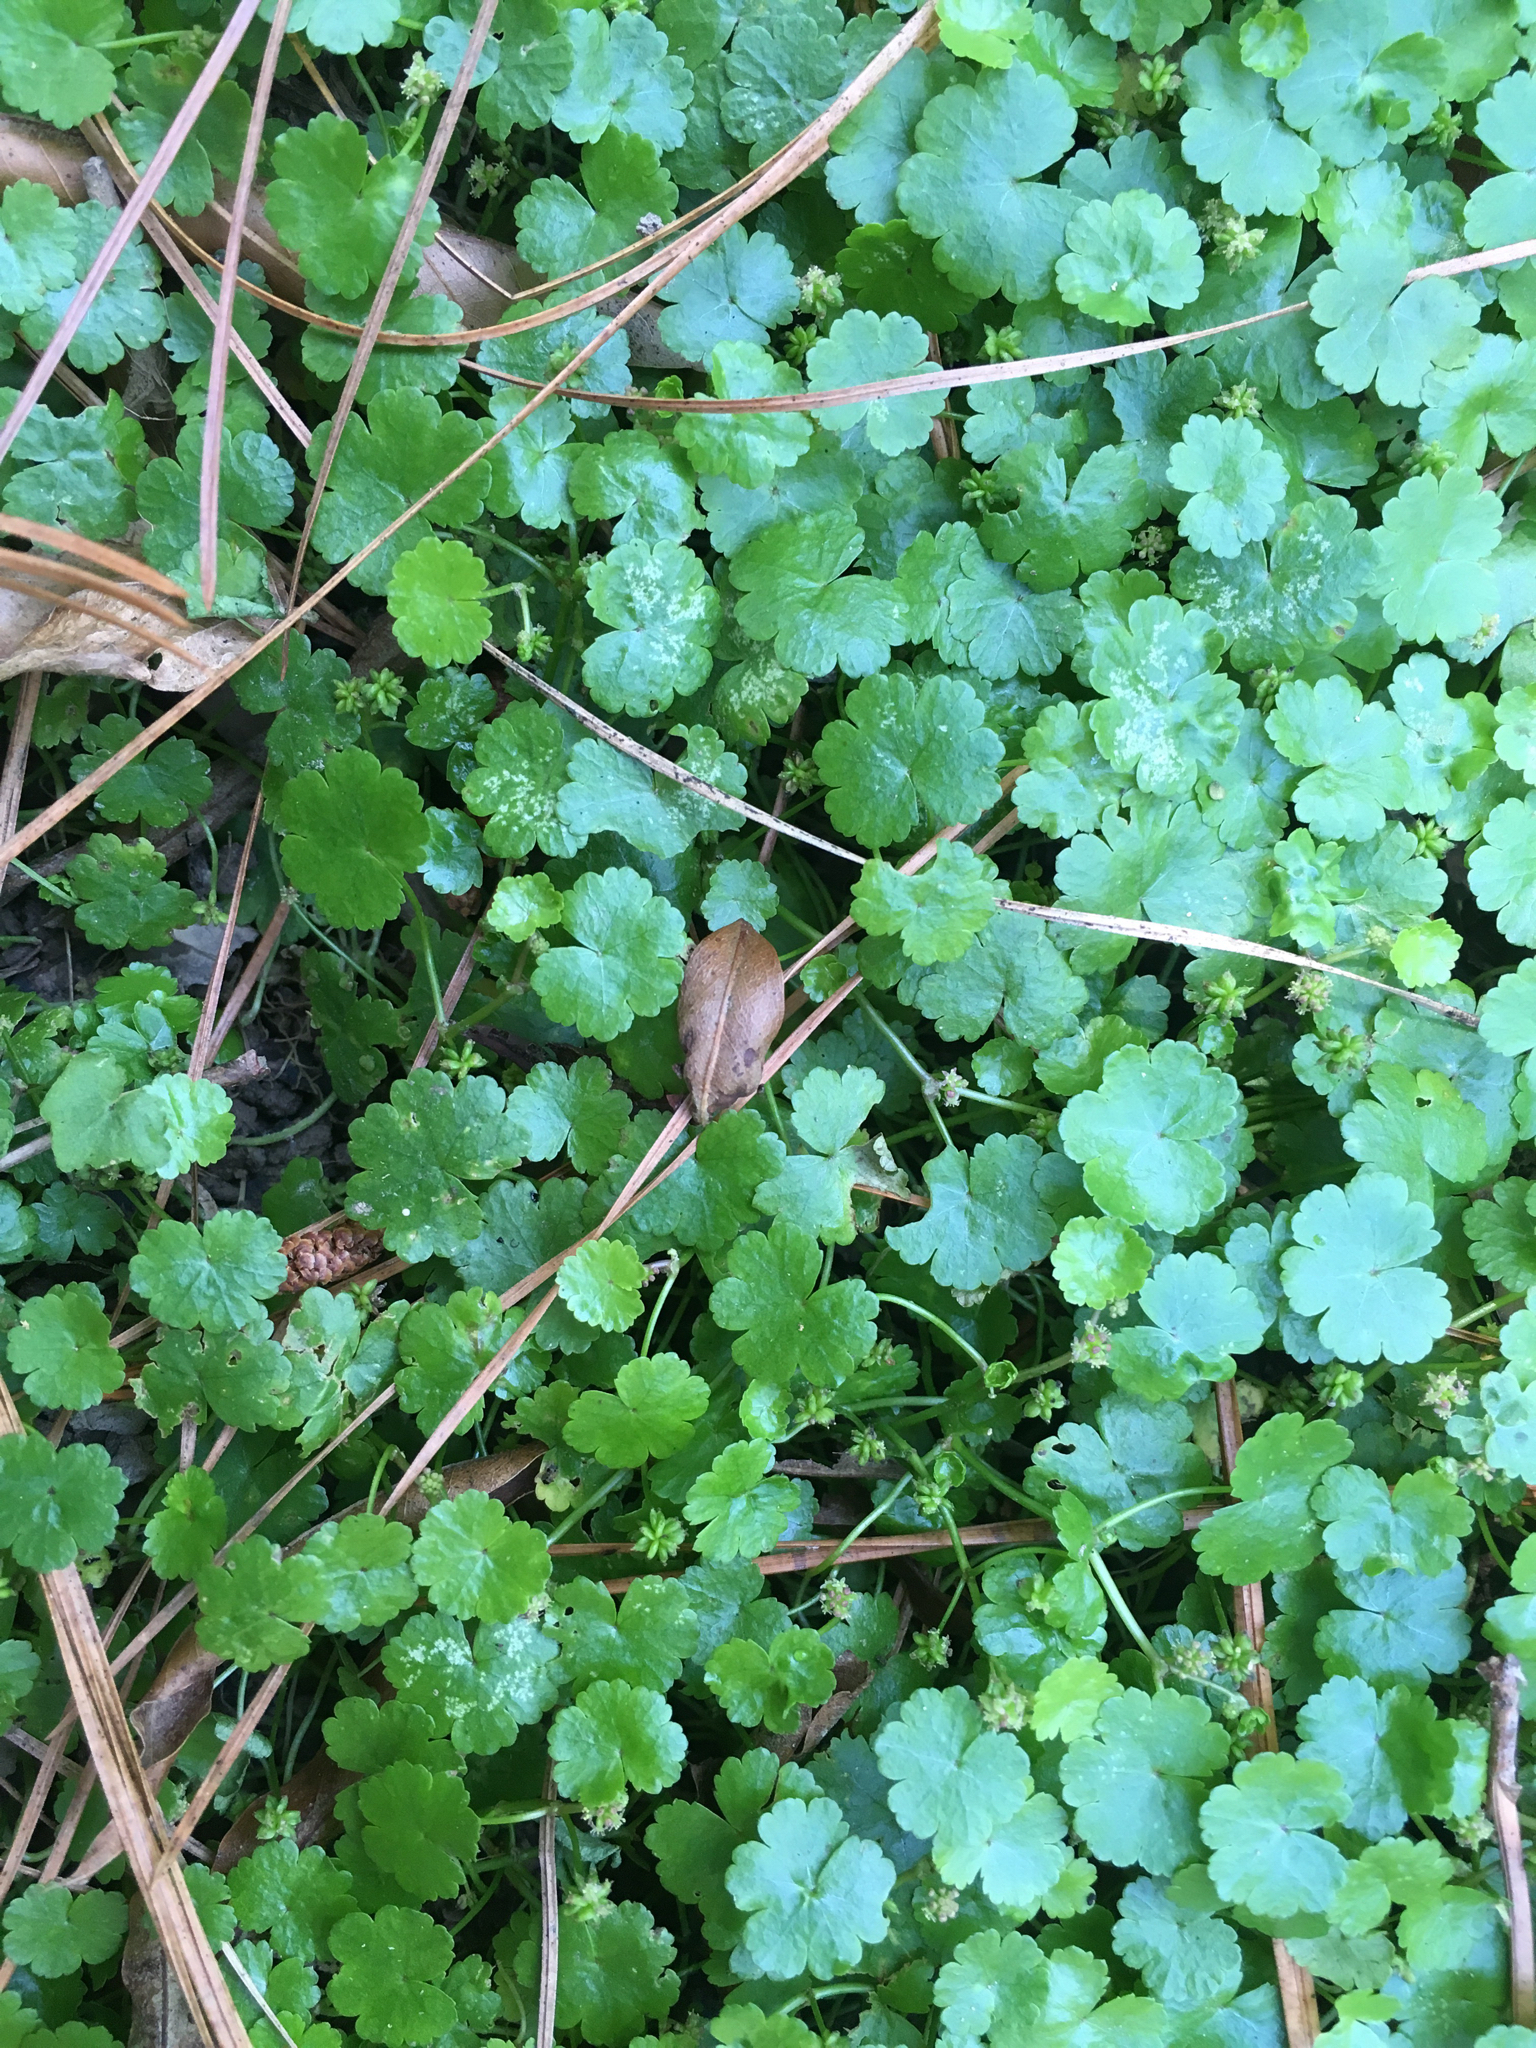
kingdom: Plantae
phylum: Tracheophyta
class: Magnoliopsida
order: Apiales
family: Araliaceae
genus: Hydrocotyle
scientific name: Hydrocotyle sibthorpioides
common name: Lawn marshpennywort
